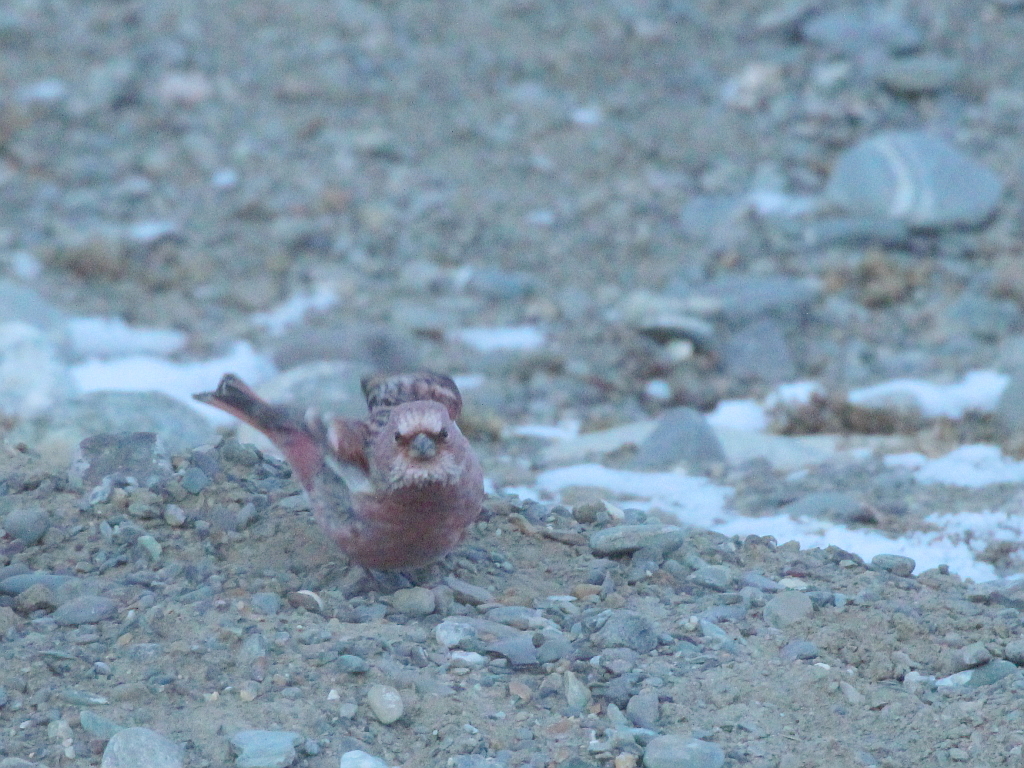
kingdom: Animalia
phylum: Chordata
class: Aves
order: Passeriformes
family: Fringillidae
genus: Carpodacus
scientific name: Carpodacus roseus
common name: Pallas's rosefinch
